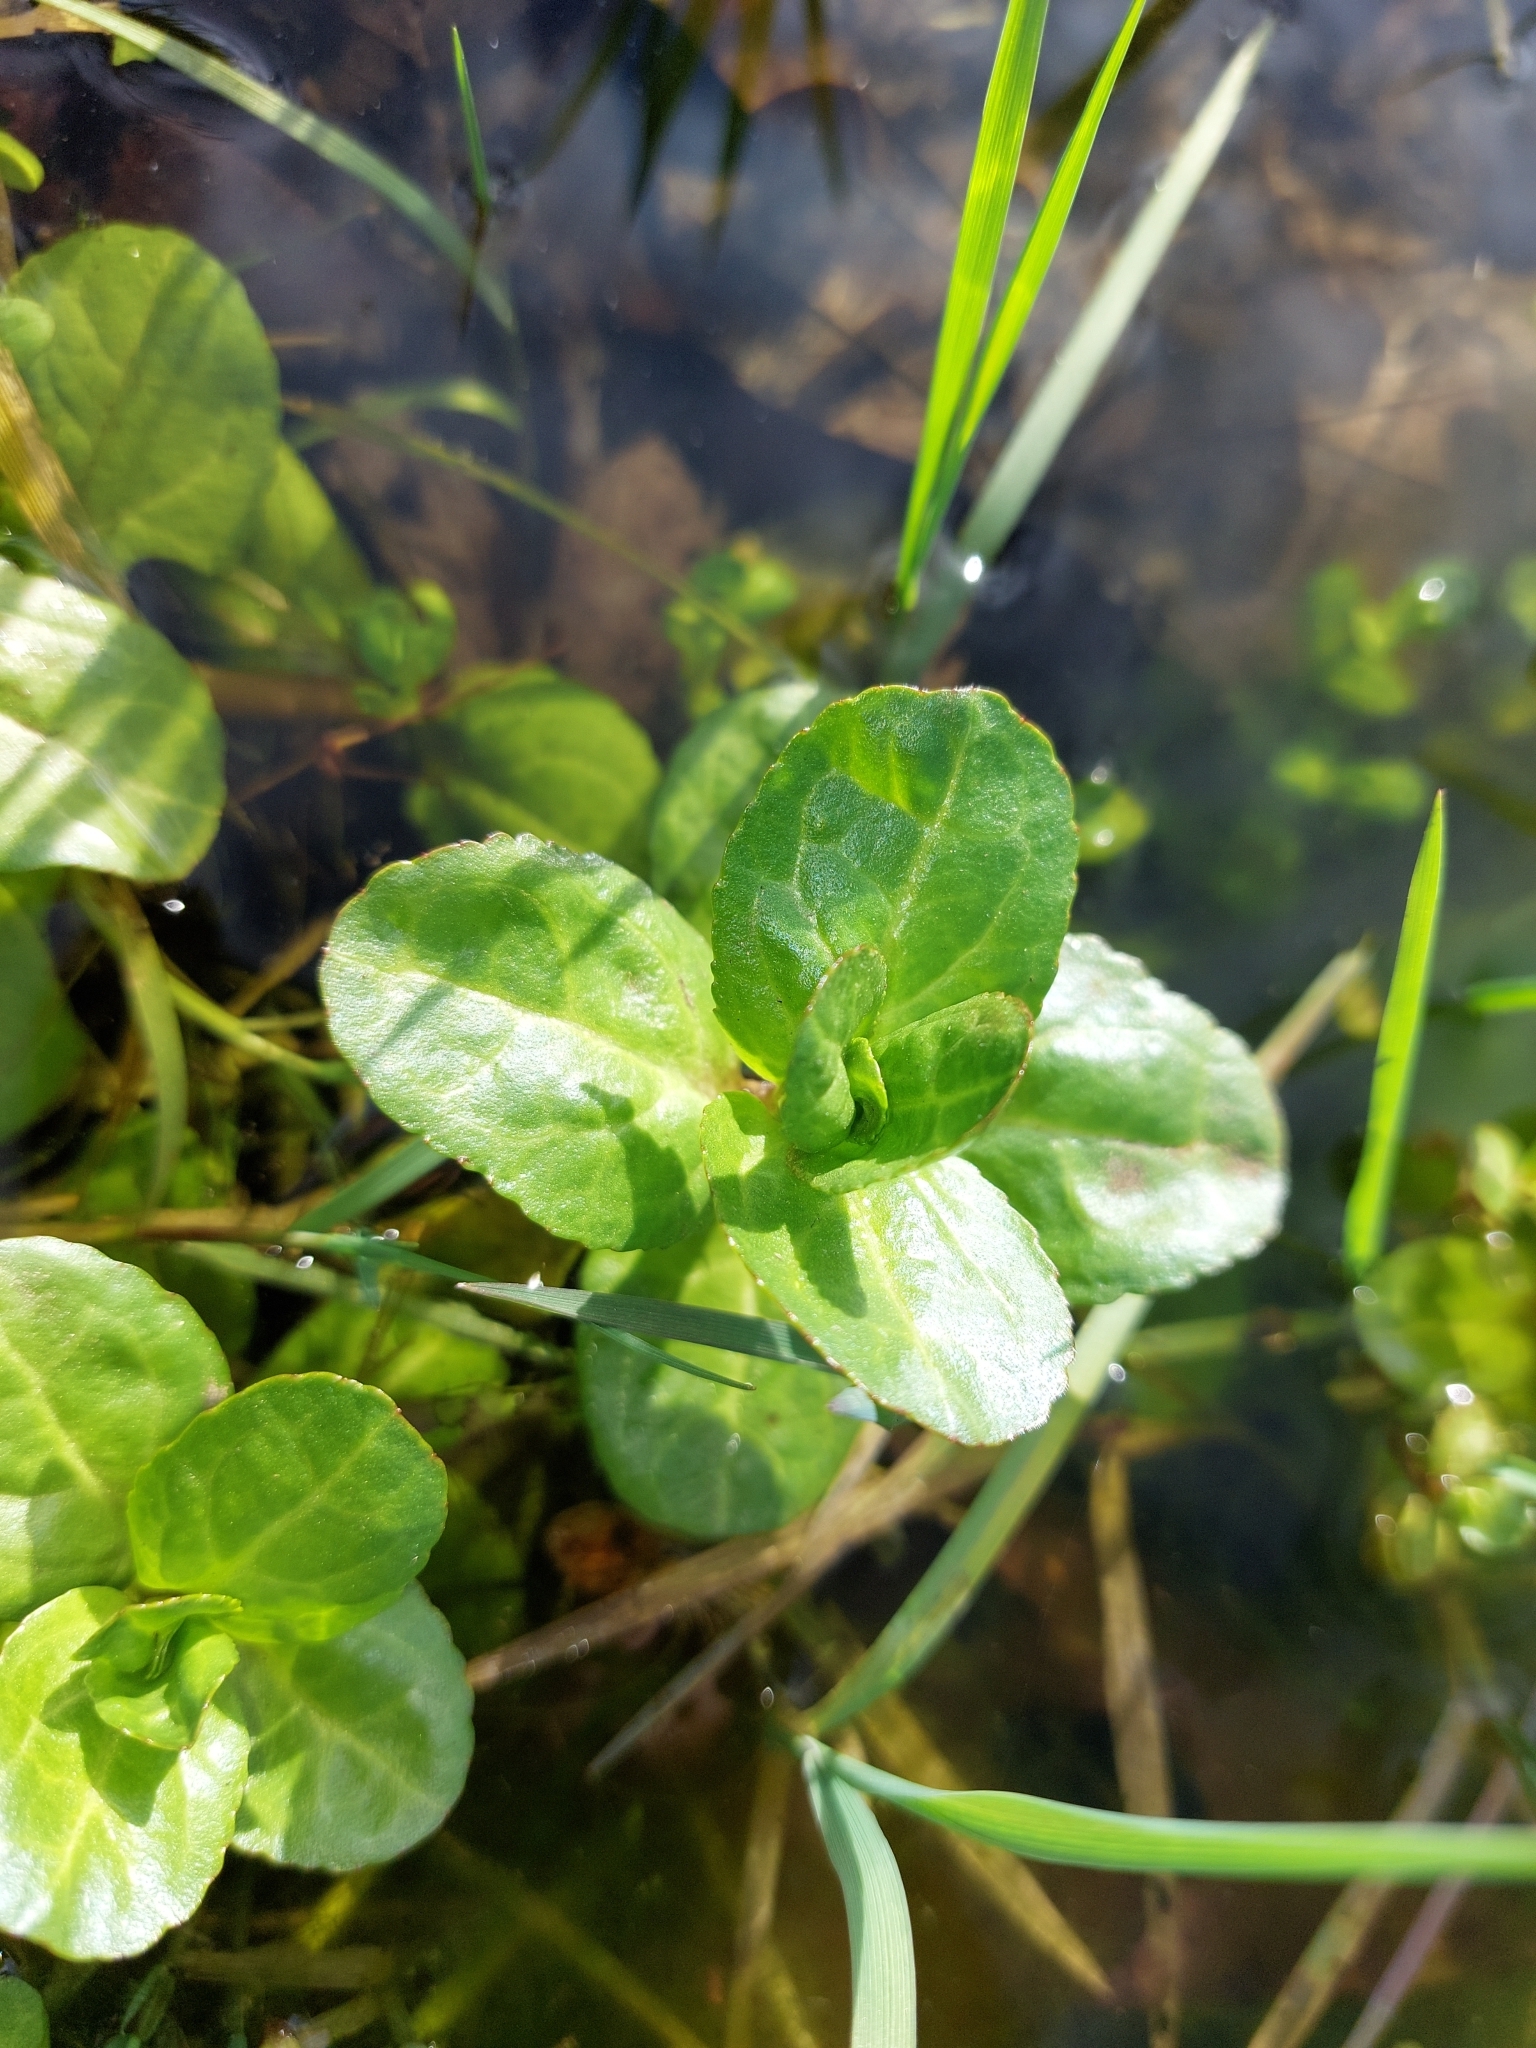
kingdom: Plantae
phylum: Tracheophyta
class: Magnoliopsida
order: Lamiales
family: Plantaginaceae
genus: Veronica
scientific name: Veronica beccabunga
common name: Brooklime
